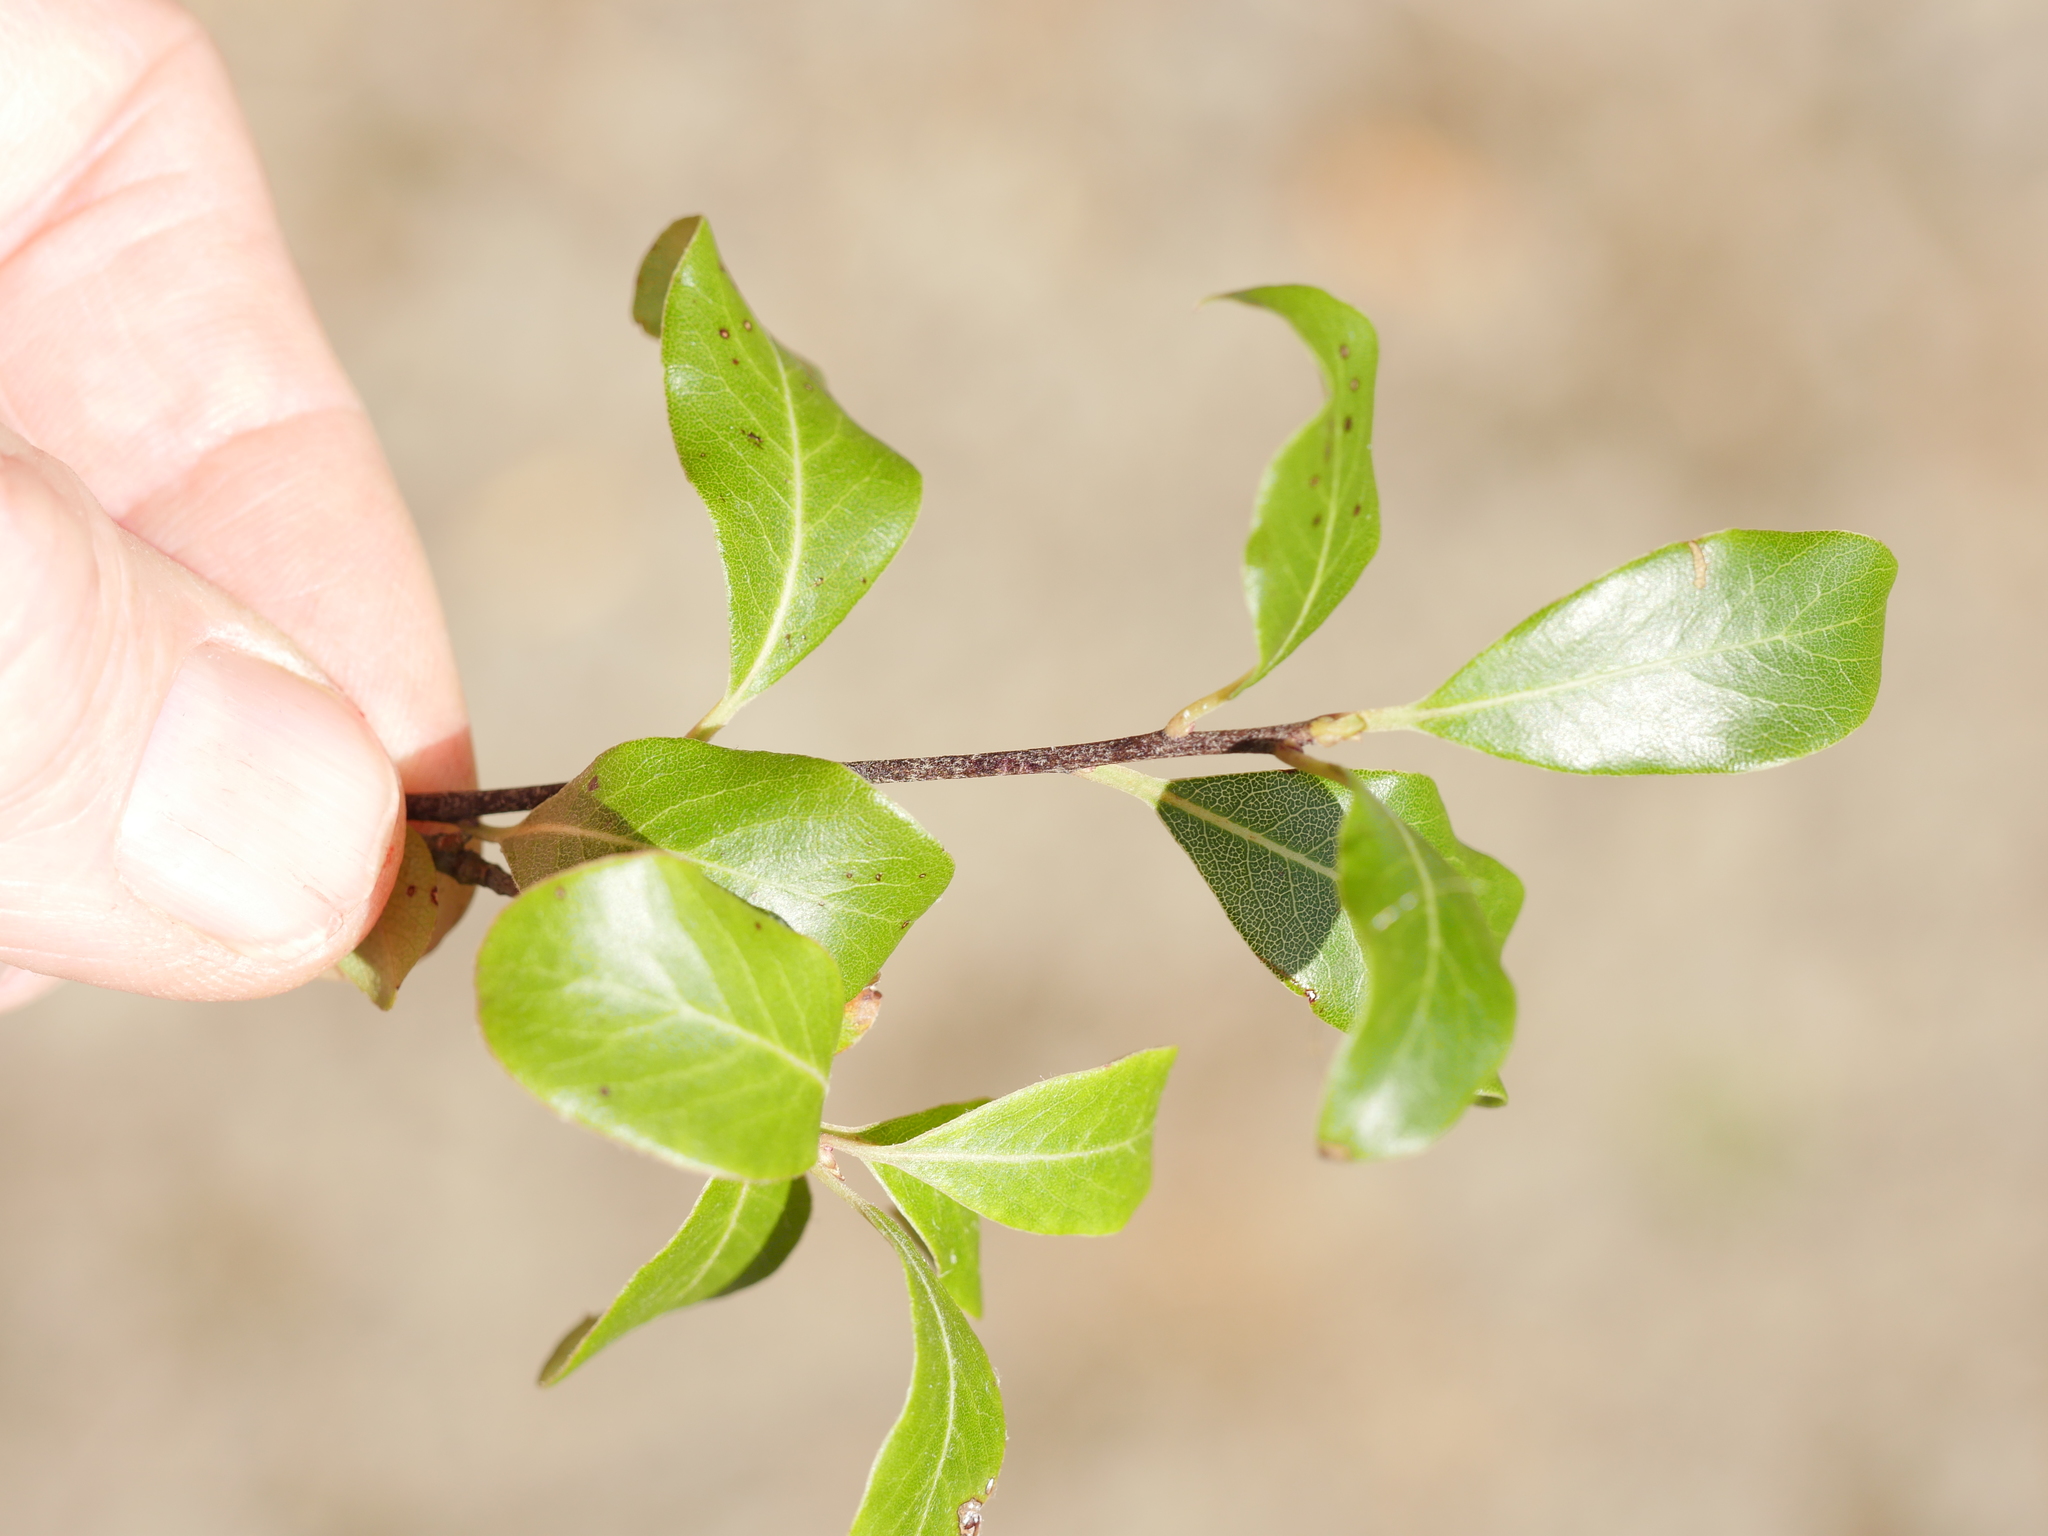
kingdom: Plantae
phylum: Tracheophyta
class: Magnoliopsida
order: Apiales
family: Pittosporaceae
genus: Pittosporum
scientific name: Pittosporum tenuifolium
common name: Kohuhu
